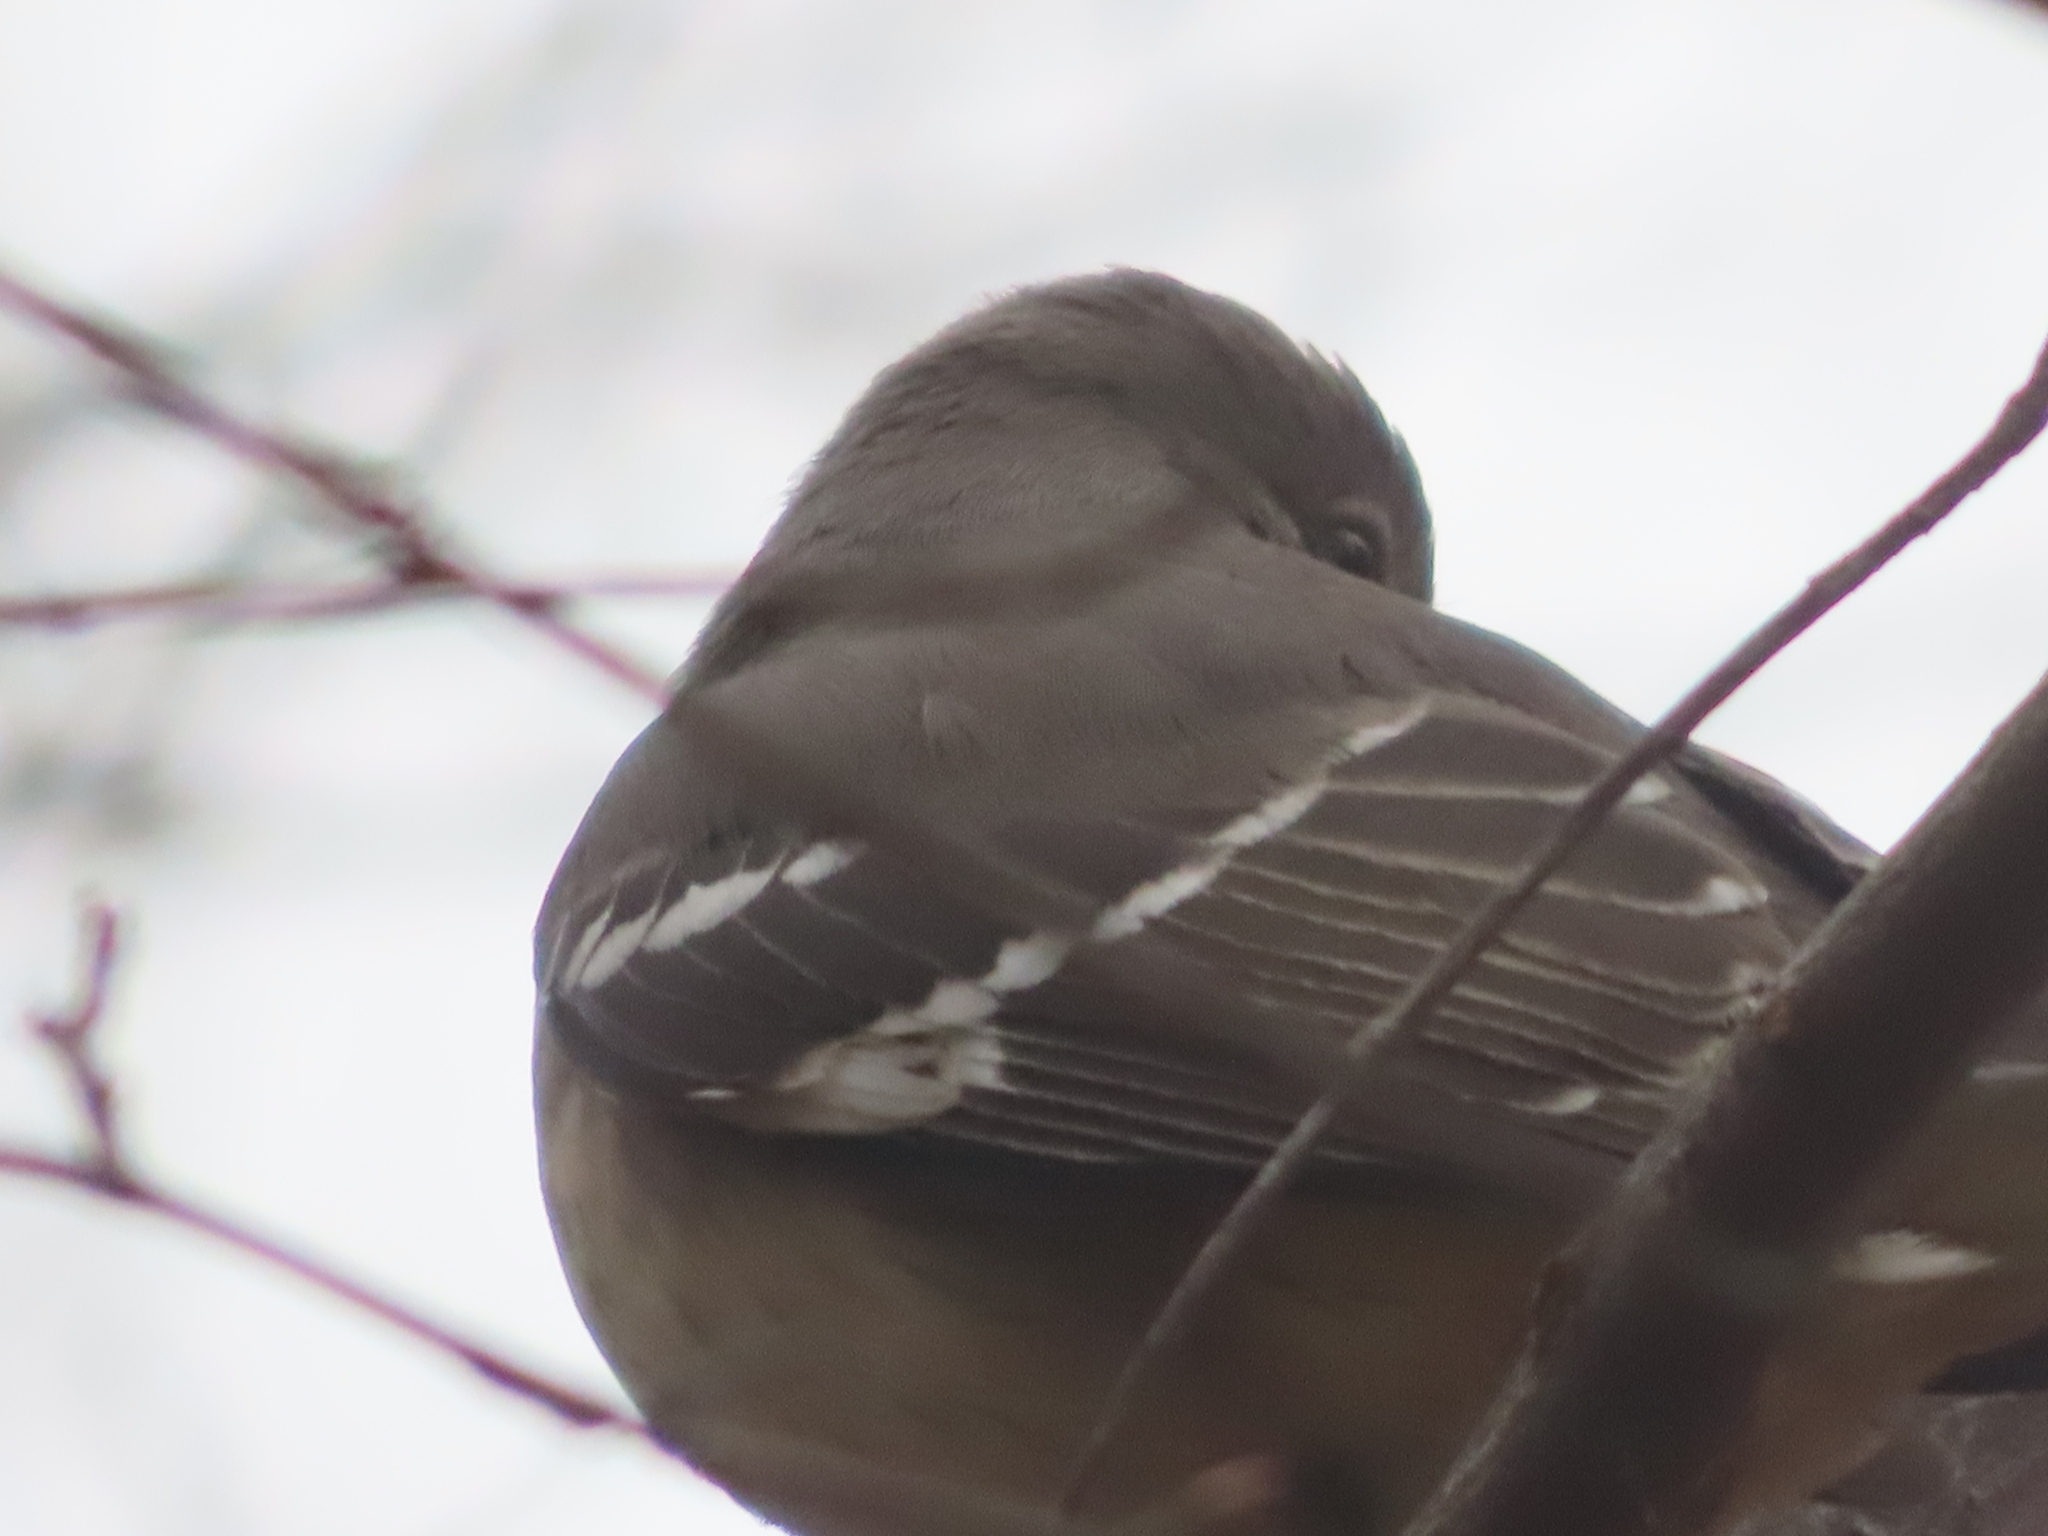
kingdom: Animalia
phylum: Chordata
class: Aves
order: Passeriformes
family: Mimidae
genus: Mimus
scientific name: Mimus polyglottos
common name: Northern mockingbird
